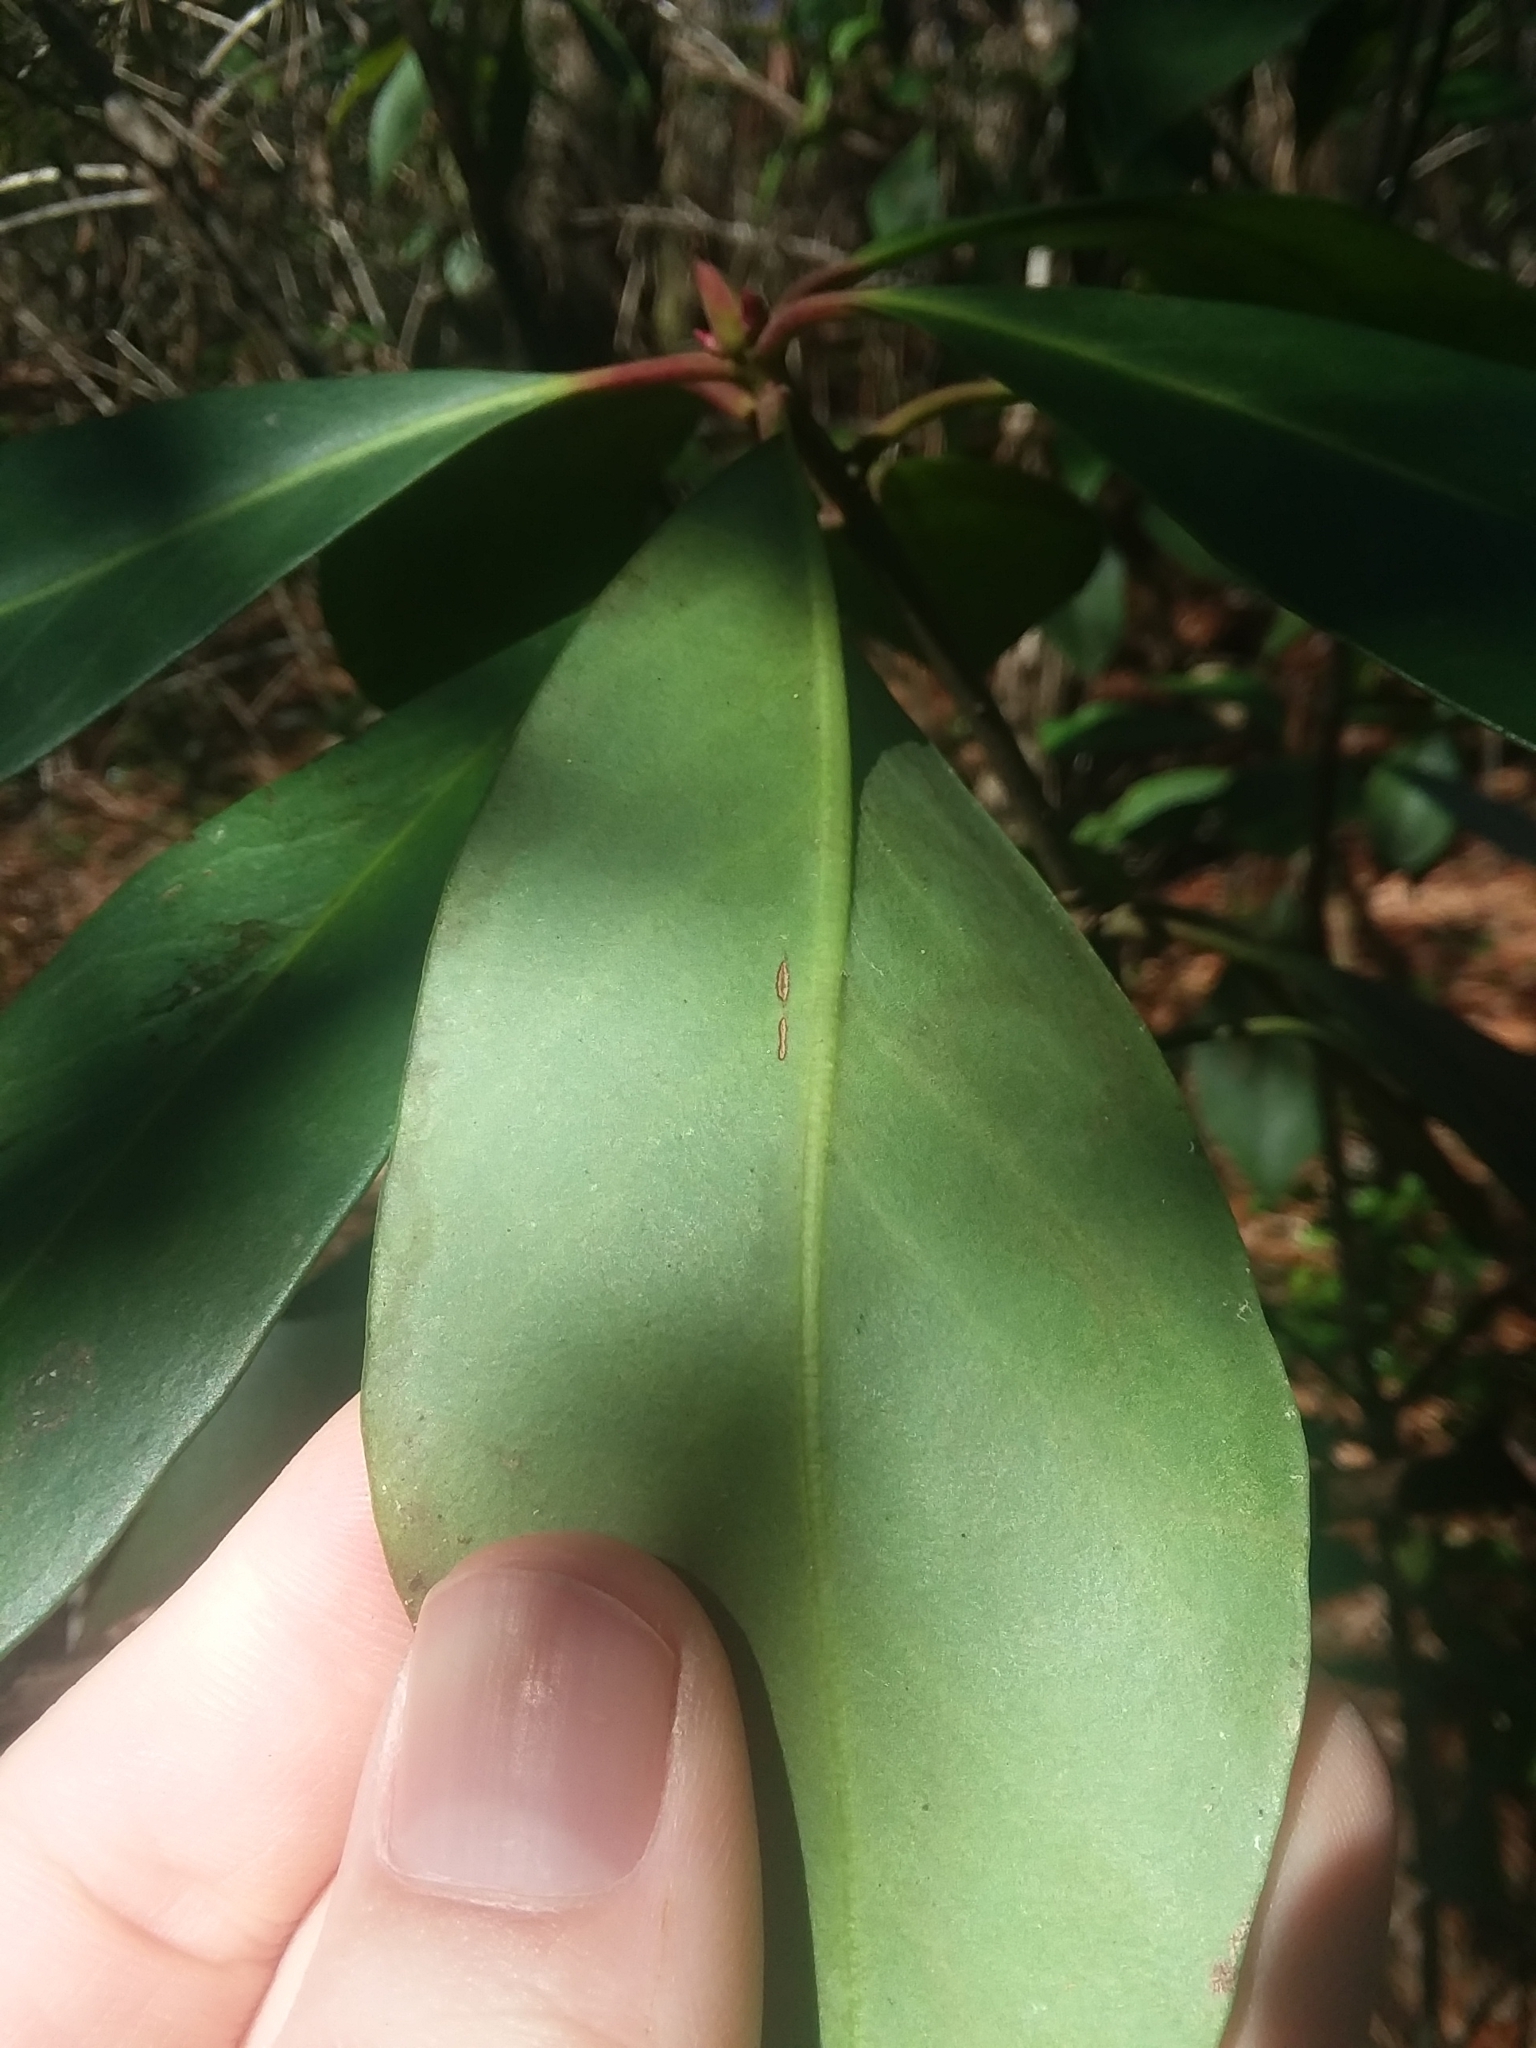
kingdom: Plantae
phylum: Tracheophyta
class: Magnoliopsida
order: Austrobaileyales
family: Schisandraceae
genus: Illicium
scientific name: Illicium floridanum
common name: Florida anisetree
